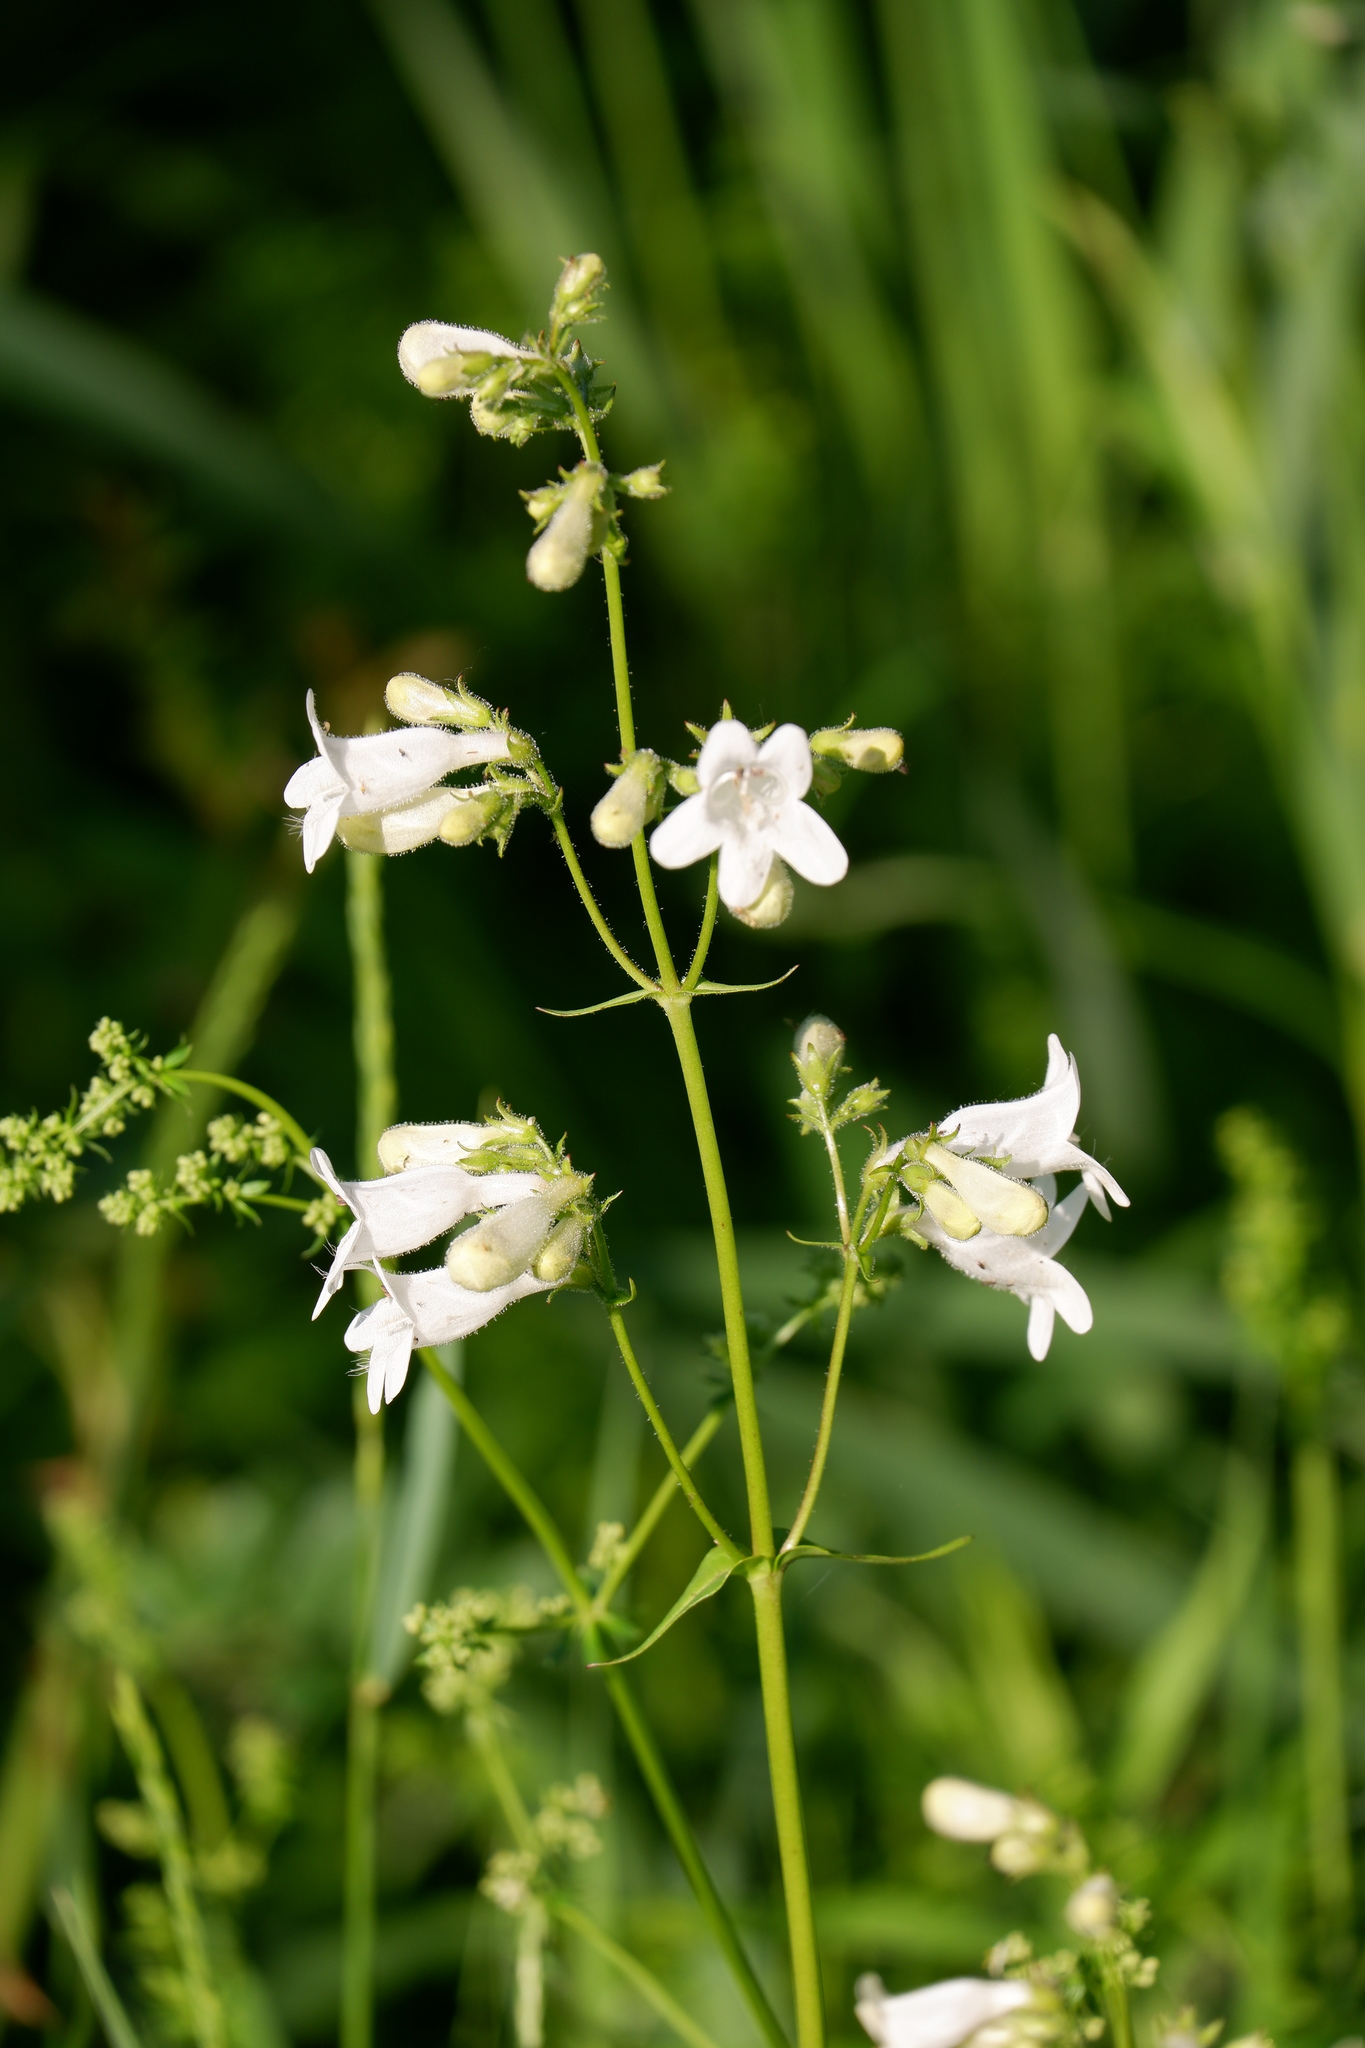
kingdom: Plantae
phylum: Tracheophyta
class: Magnoliopsida
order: Lamiales
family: Plantaginaceae
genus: Penstemon
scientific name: Penstemon digitalis
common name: Foxglove beardtongue
